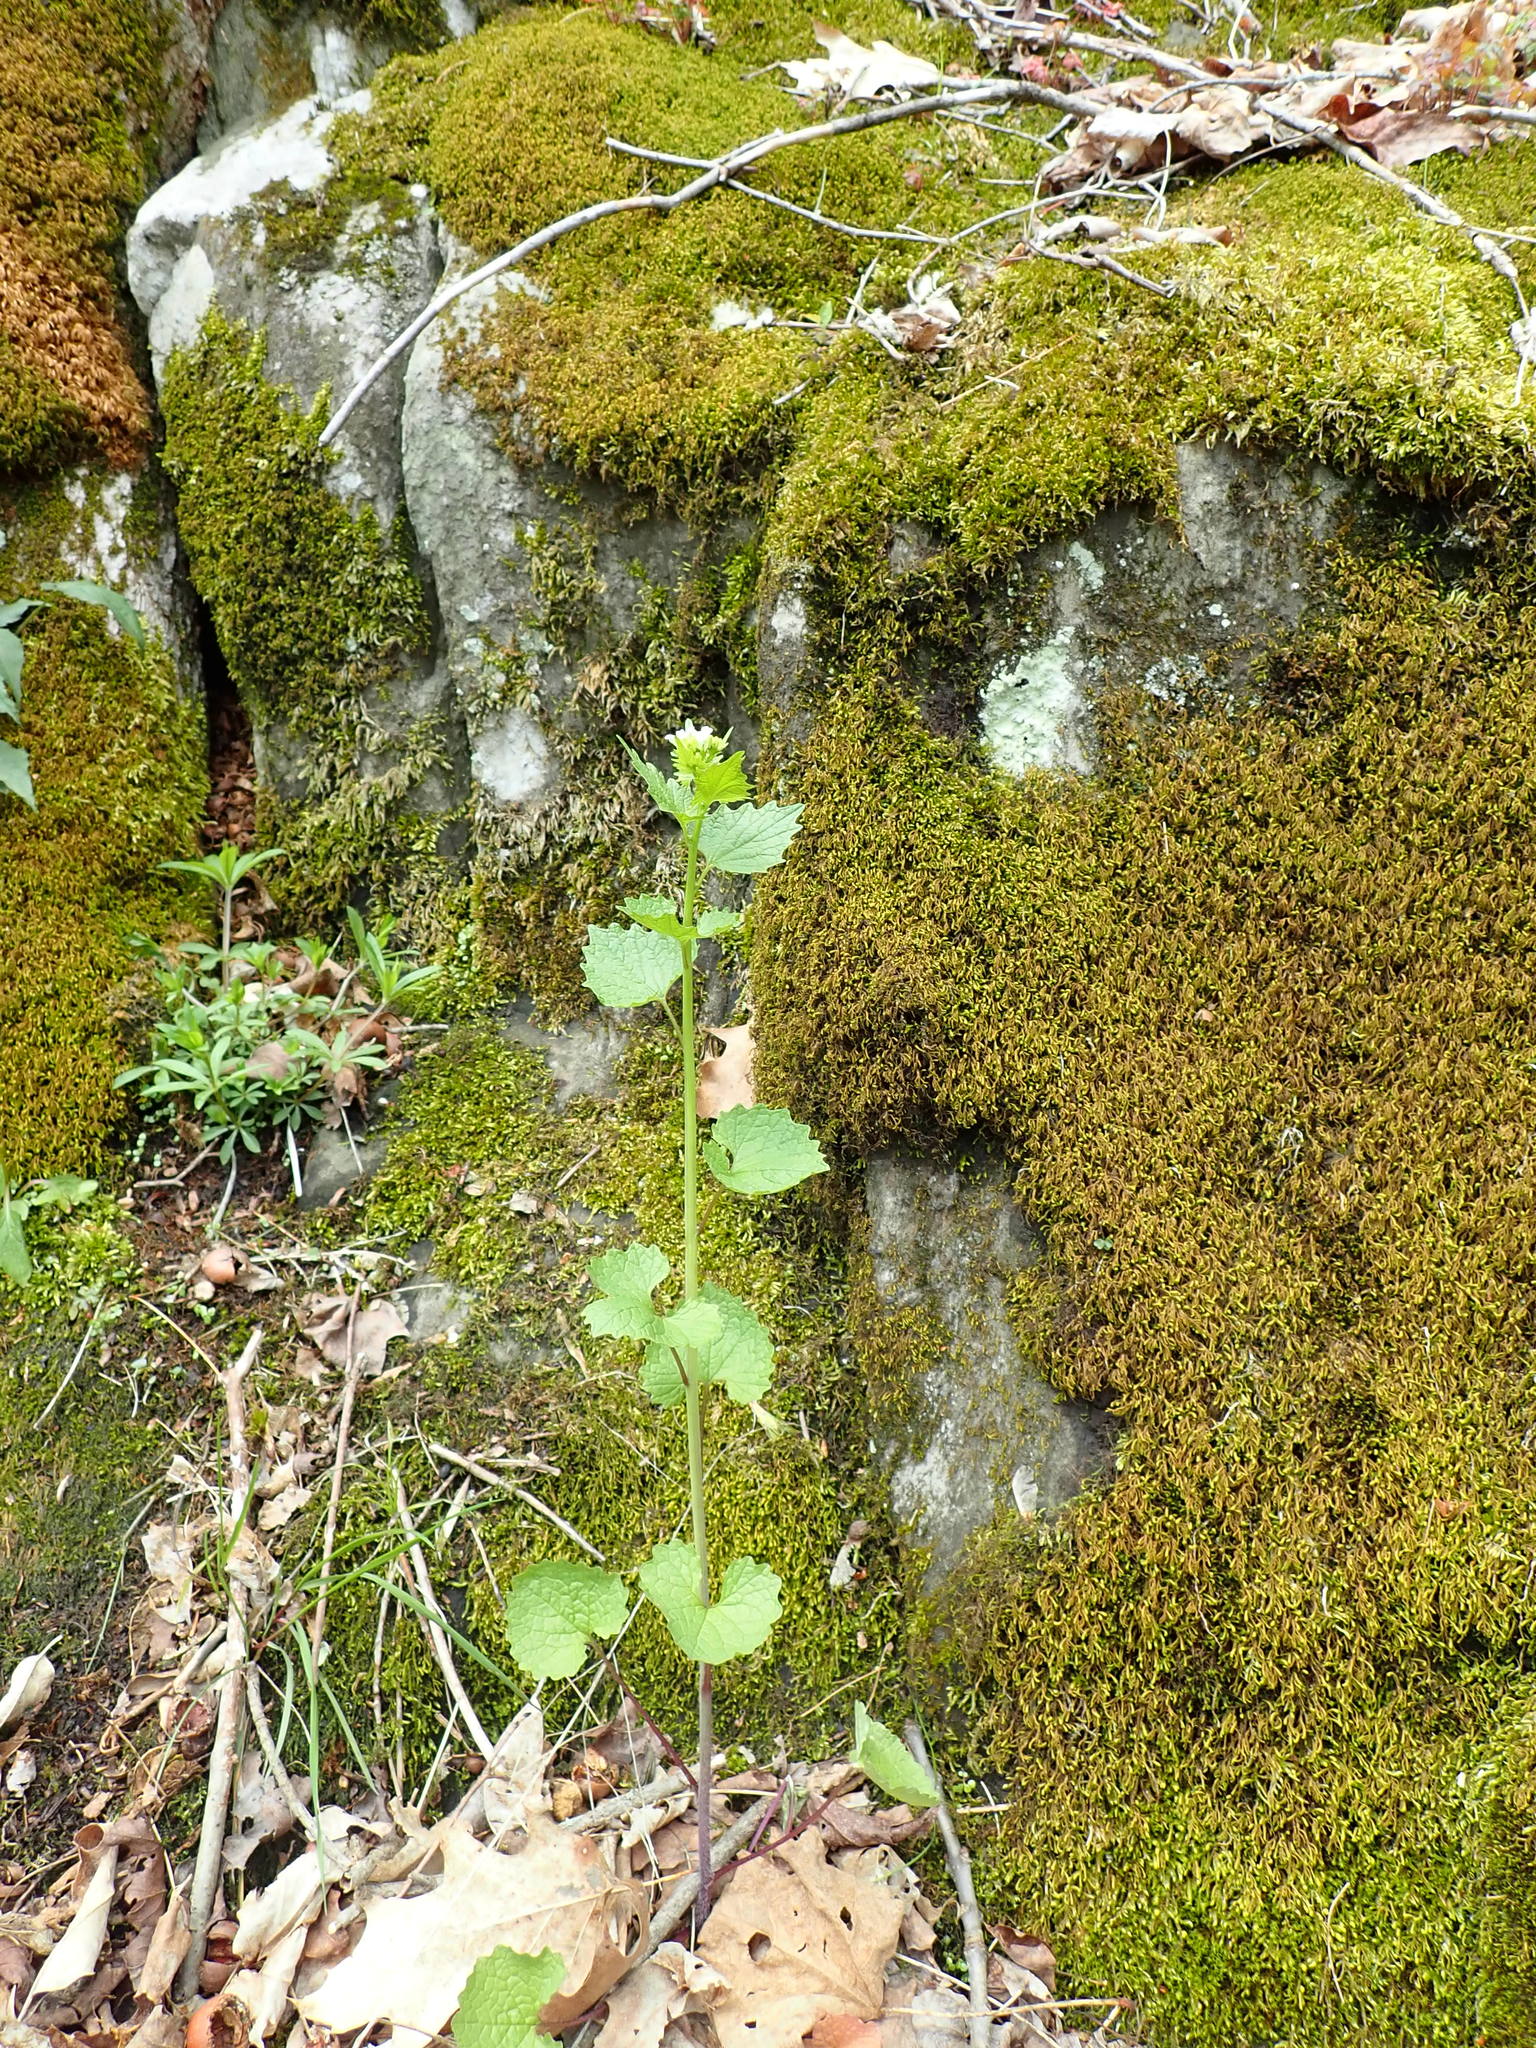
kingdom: Plantae
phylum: Tracheophyta
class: Magnoliopsida
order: Brassicales
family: Brassicaceae
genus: Alliaria
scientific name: Alliaria petiolata
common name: Garlic mustard
